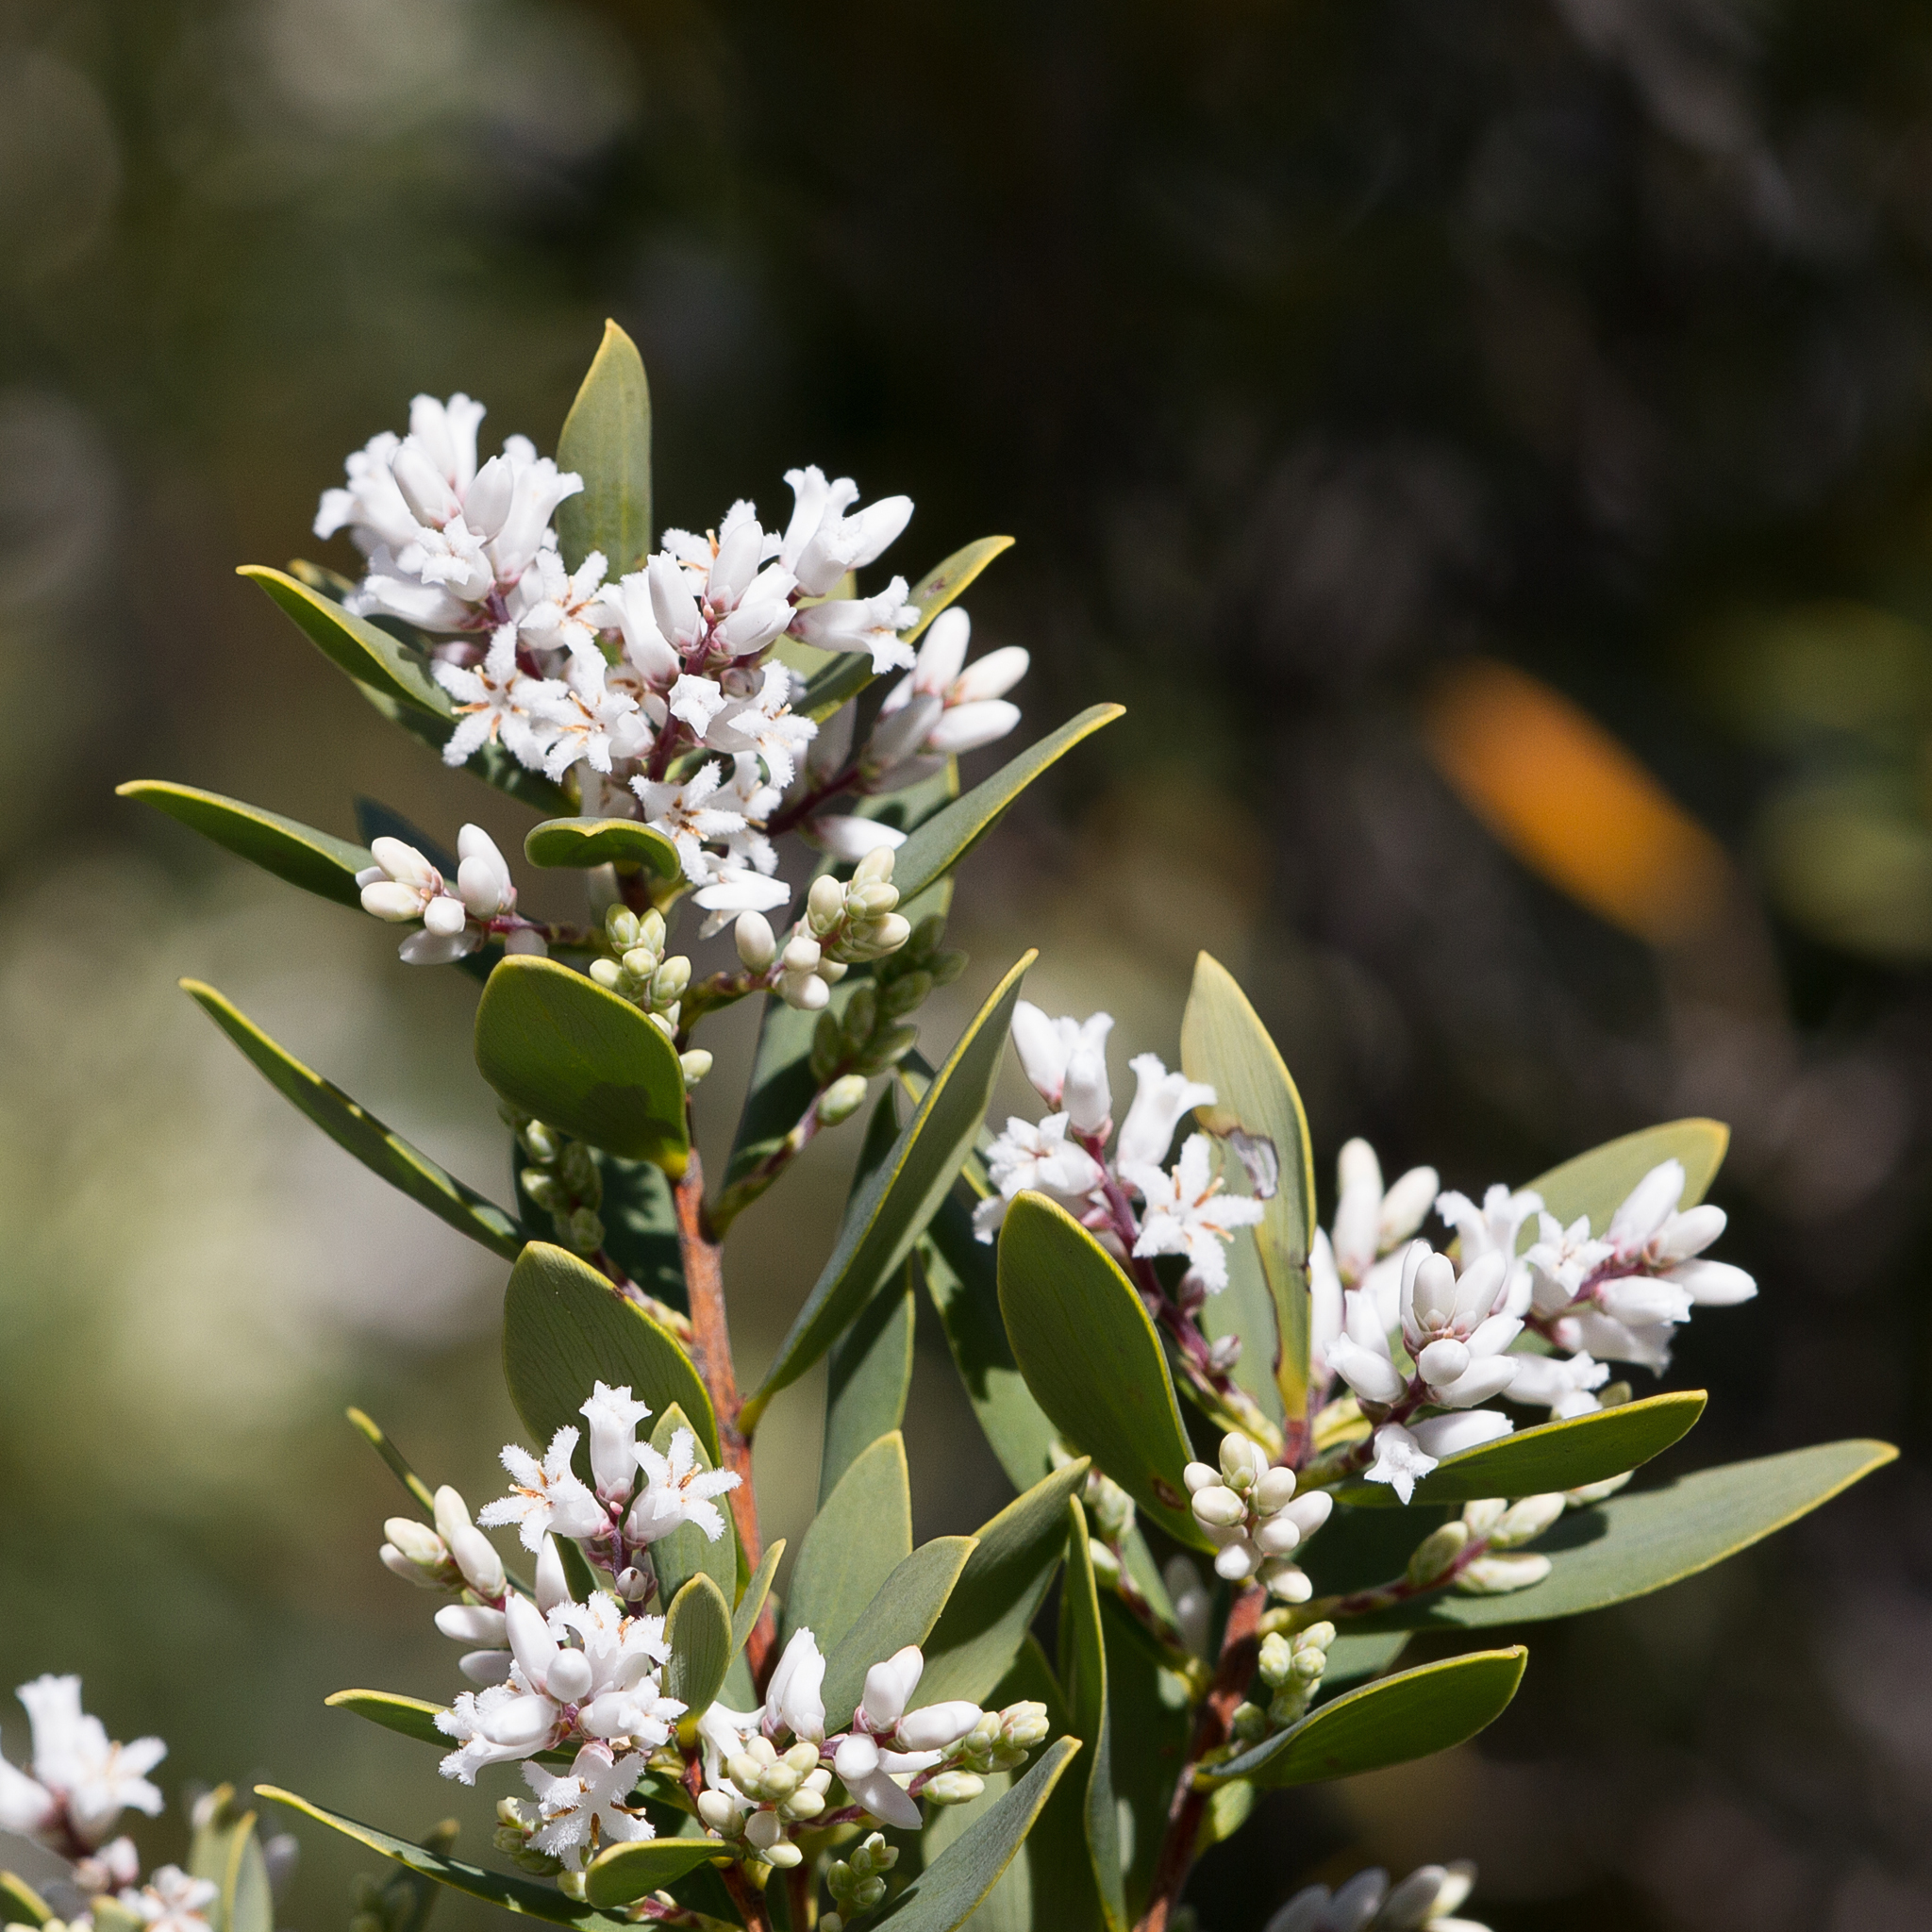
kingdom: Plantae
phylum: Tracheophyta
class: Magnoliopsida
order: Ericales
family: Ericaceae
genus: Leptecophylla
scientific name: Leptecophylla parvifolia
